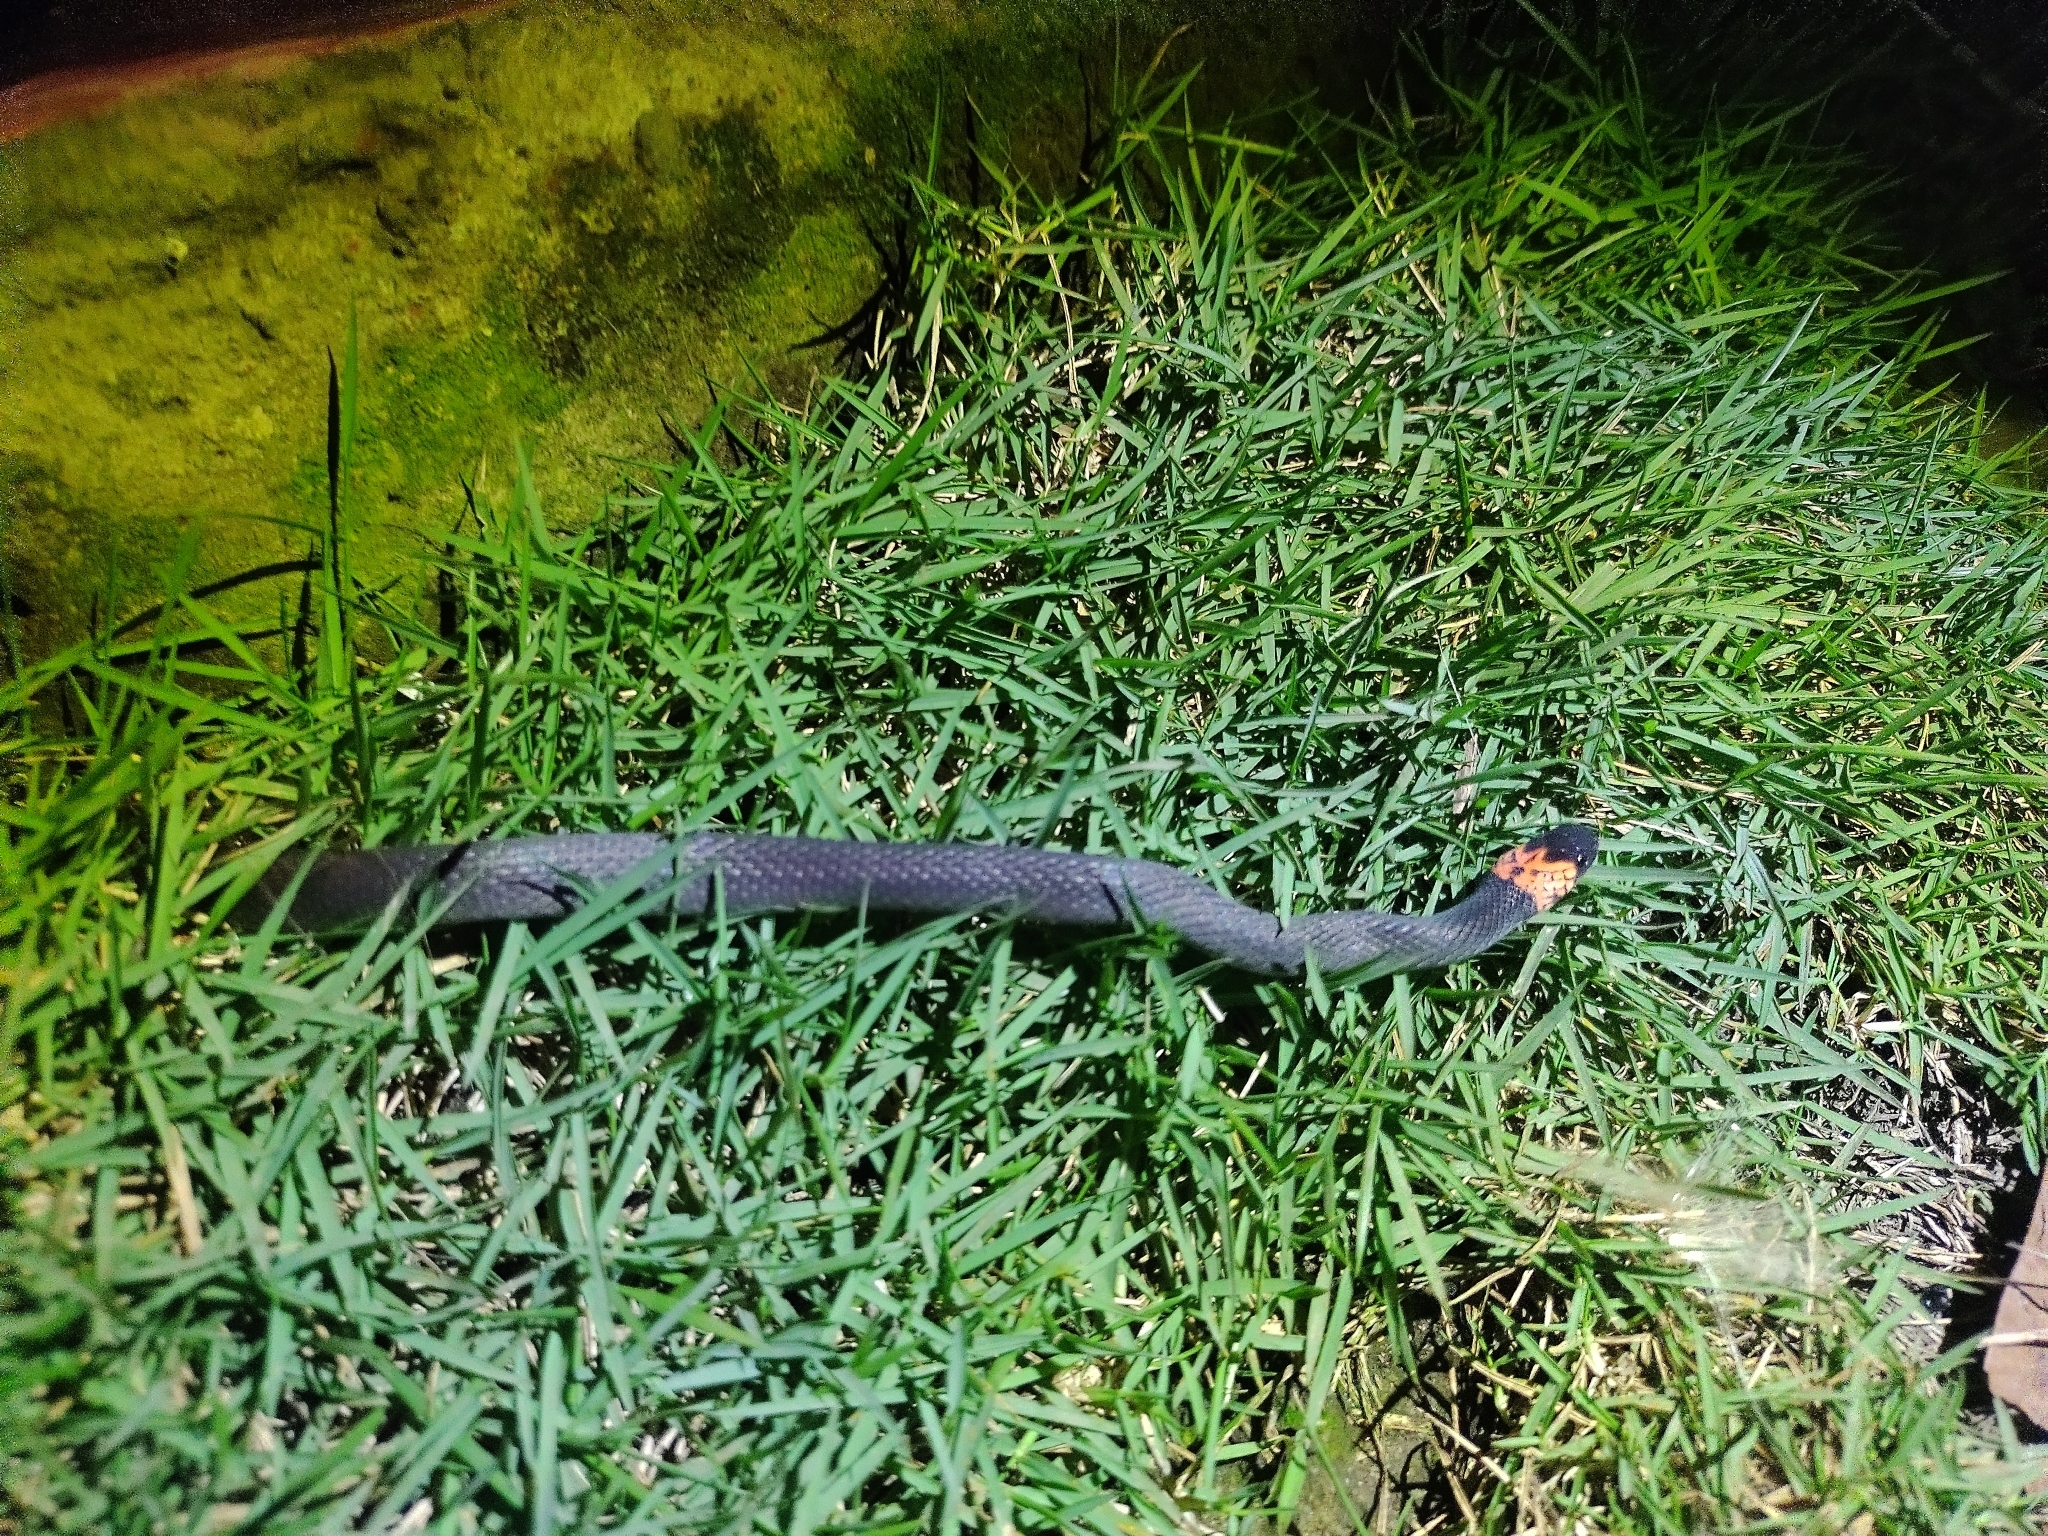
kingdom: Animalia
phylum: Chordata
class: Squamata
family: Colubridae
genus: Ninia
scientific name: Ninia atrata
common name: Hallowell's coffee snake
